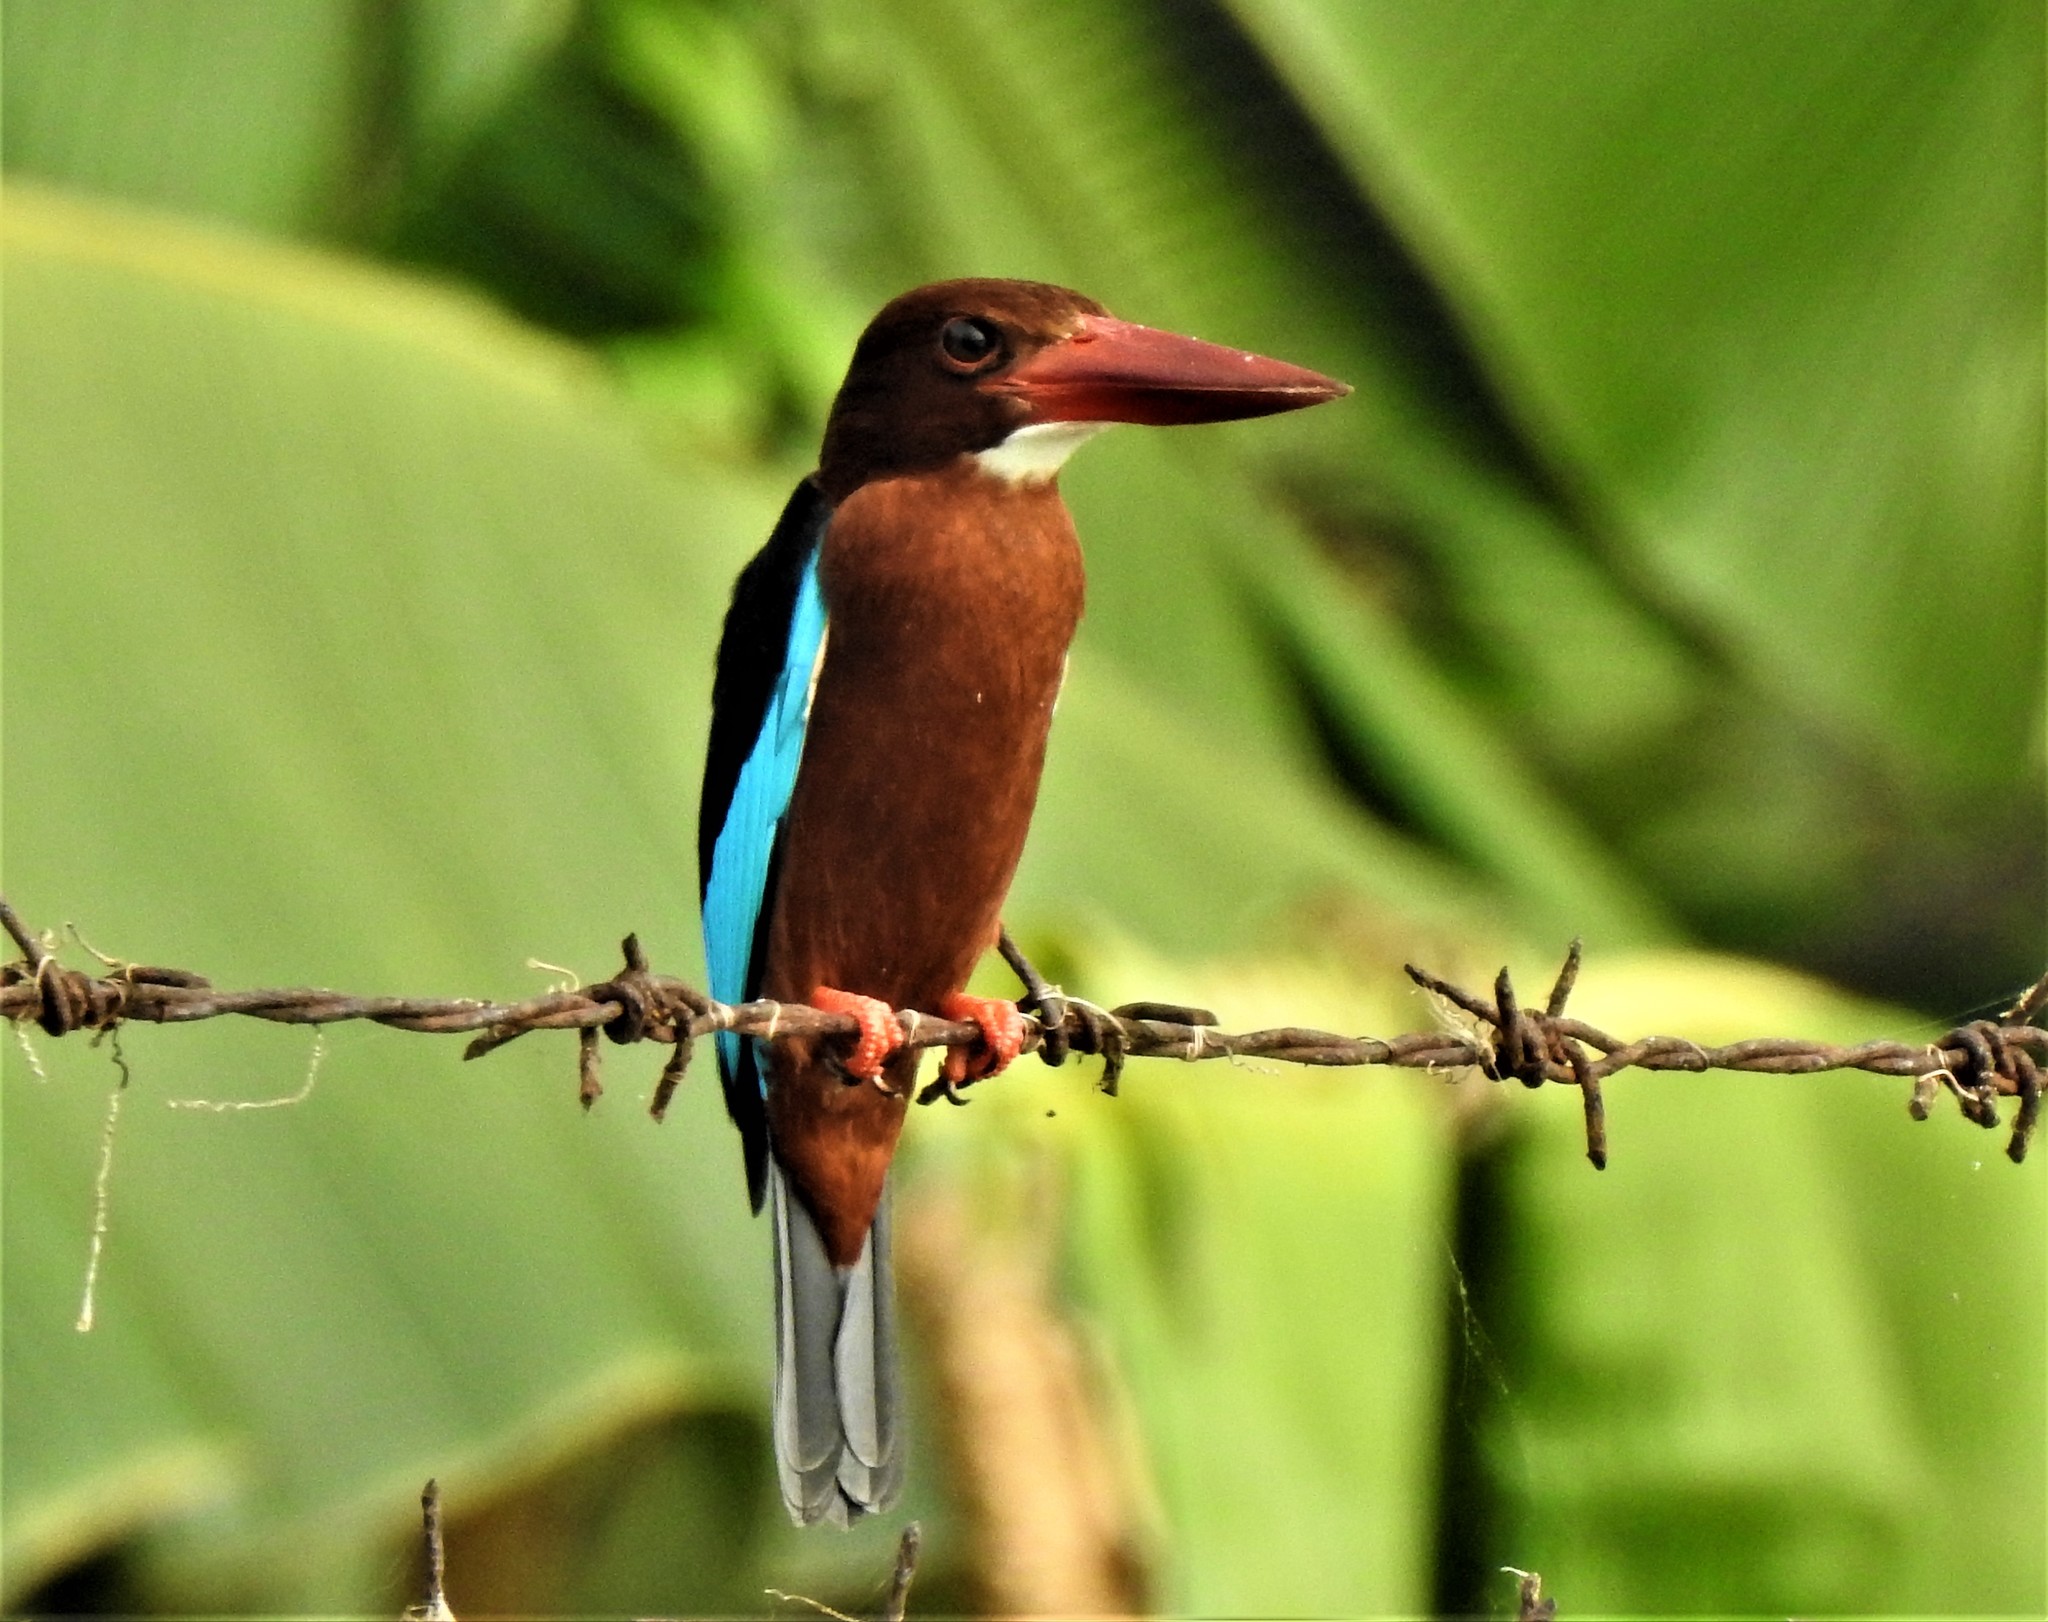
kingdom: Animalia
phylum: Chordata
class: Aves
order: Coraciiformes
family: Alcedinidae
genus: Halcyon
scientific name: Halcyon gularis
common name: Brown-breasted kingfisher
